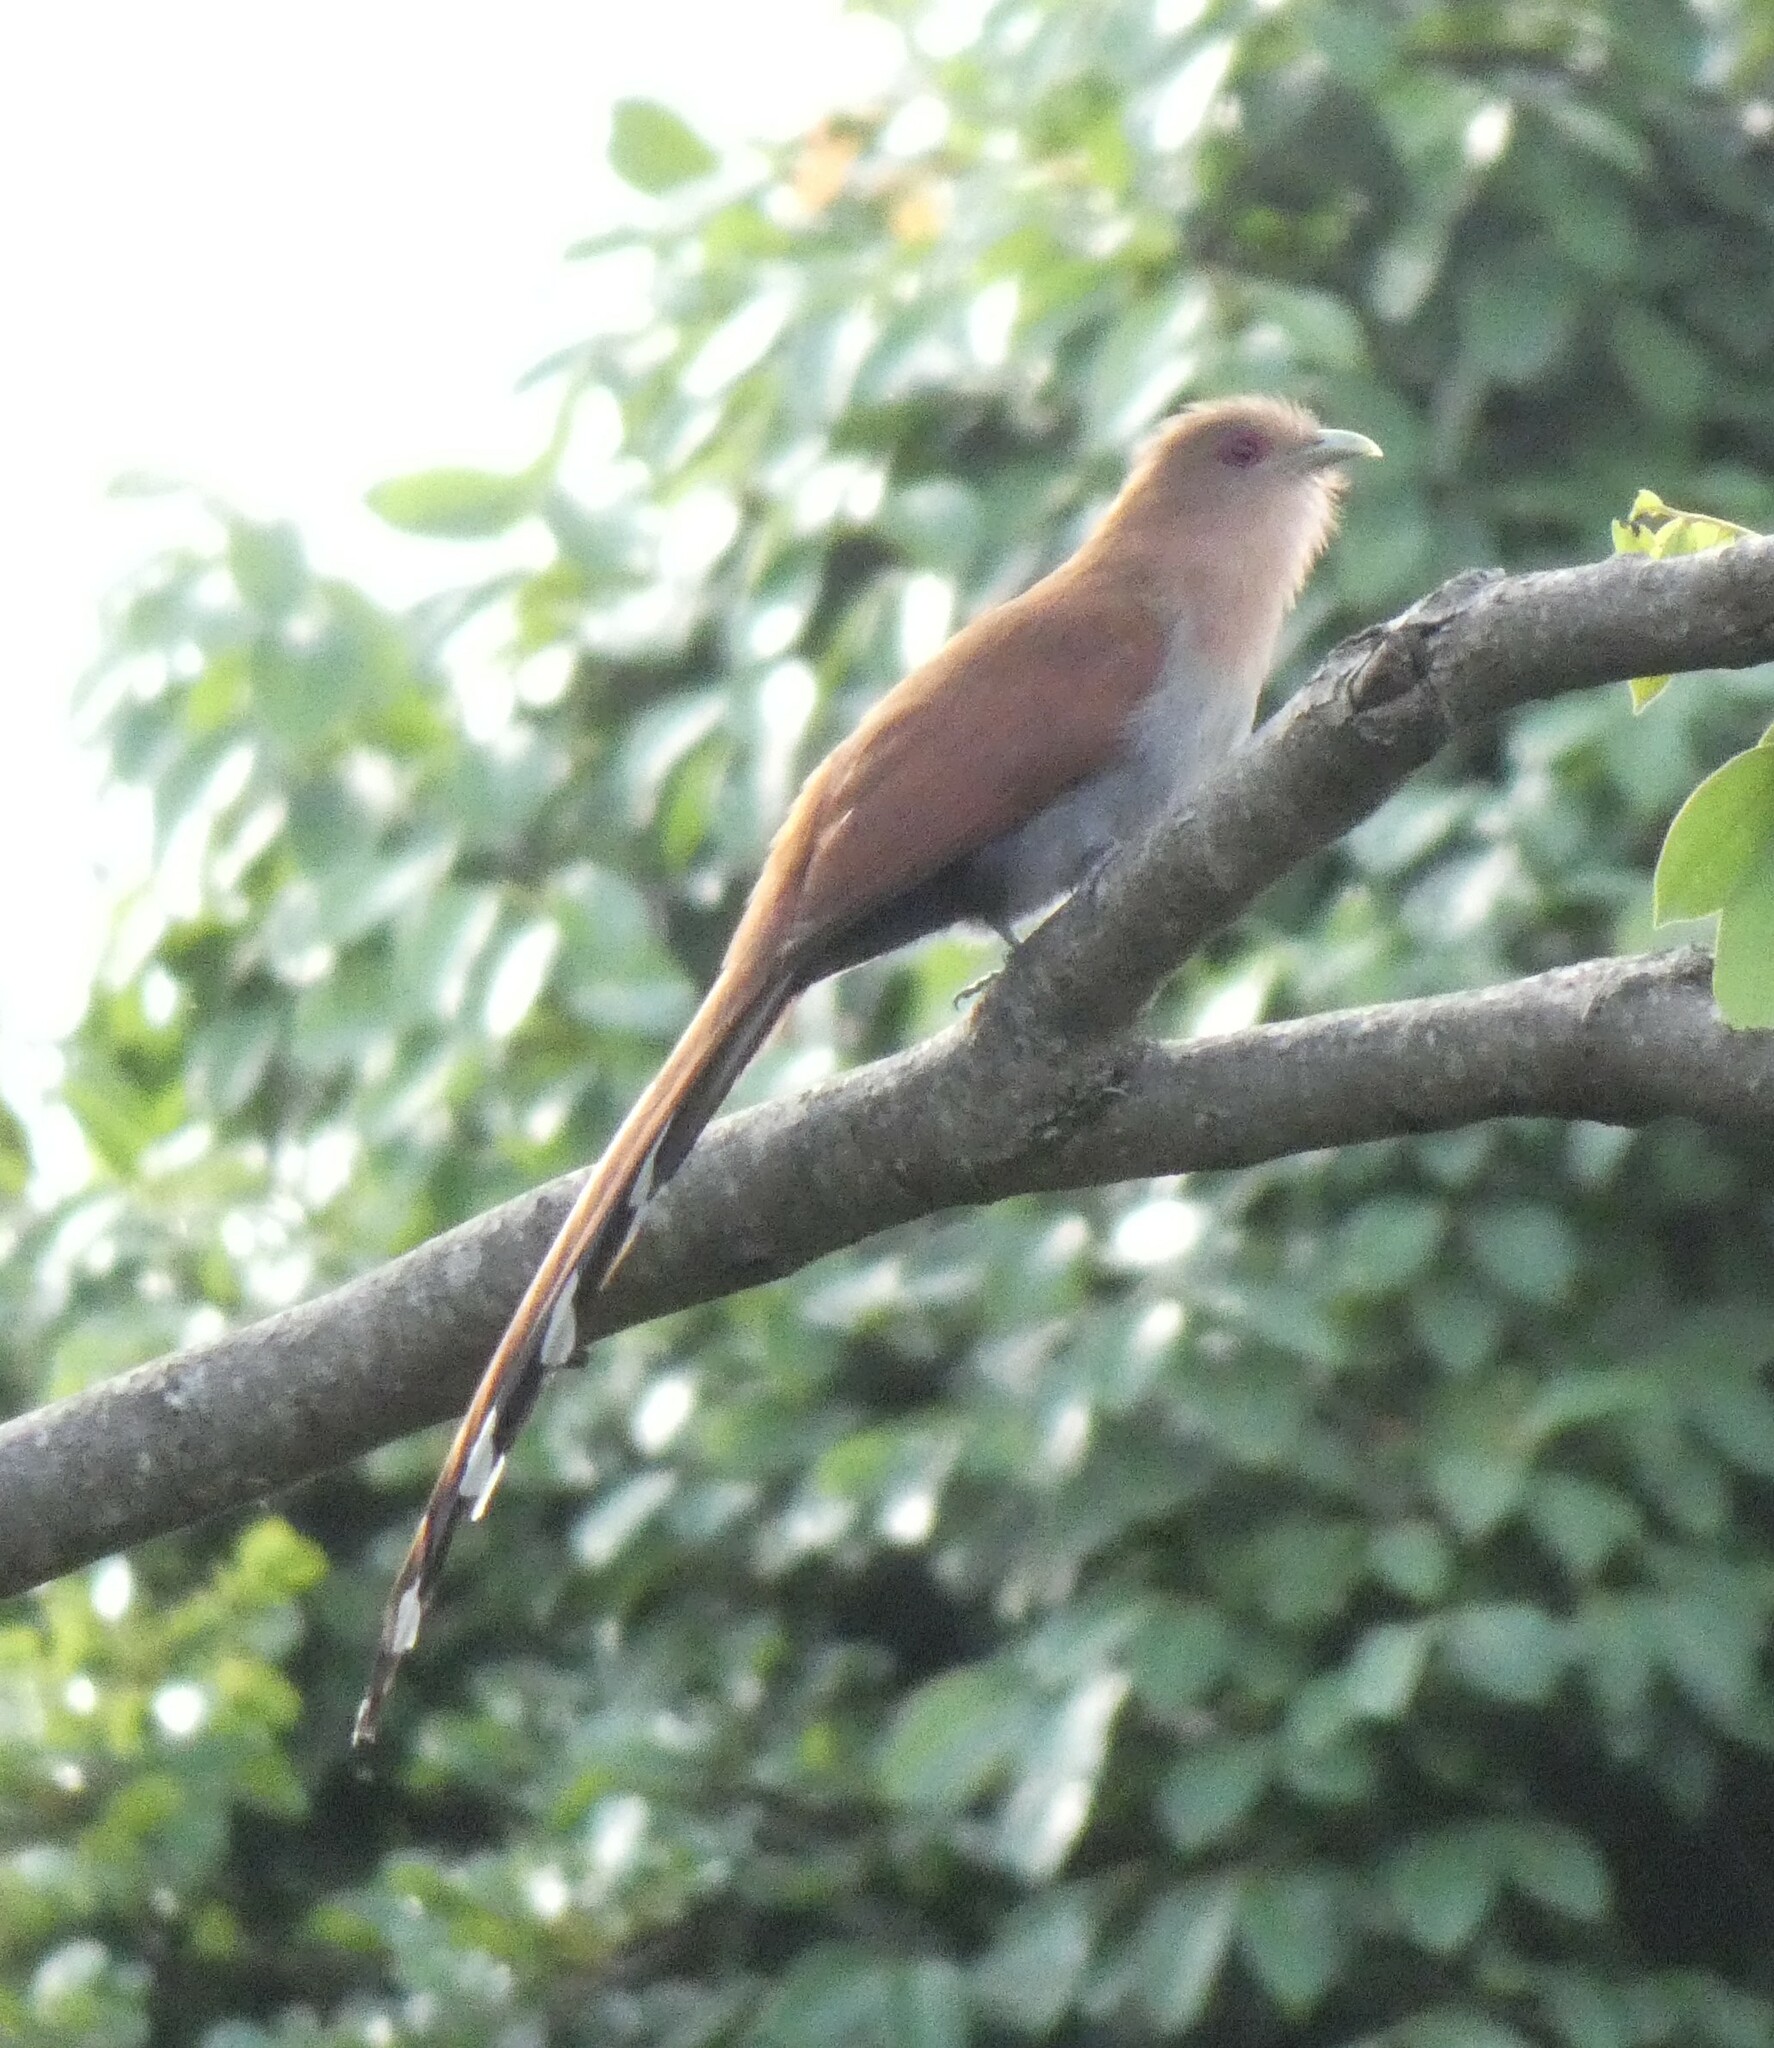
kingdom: Animalia
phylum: Chordata
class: Aves
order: Cuculiformes
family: Cuculidae
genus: Piaya
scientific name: Piaya cayana
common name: Squirrel cuckoo
